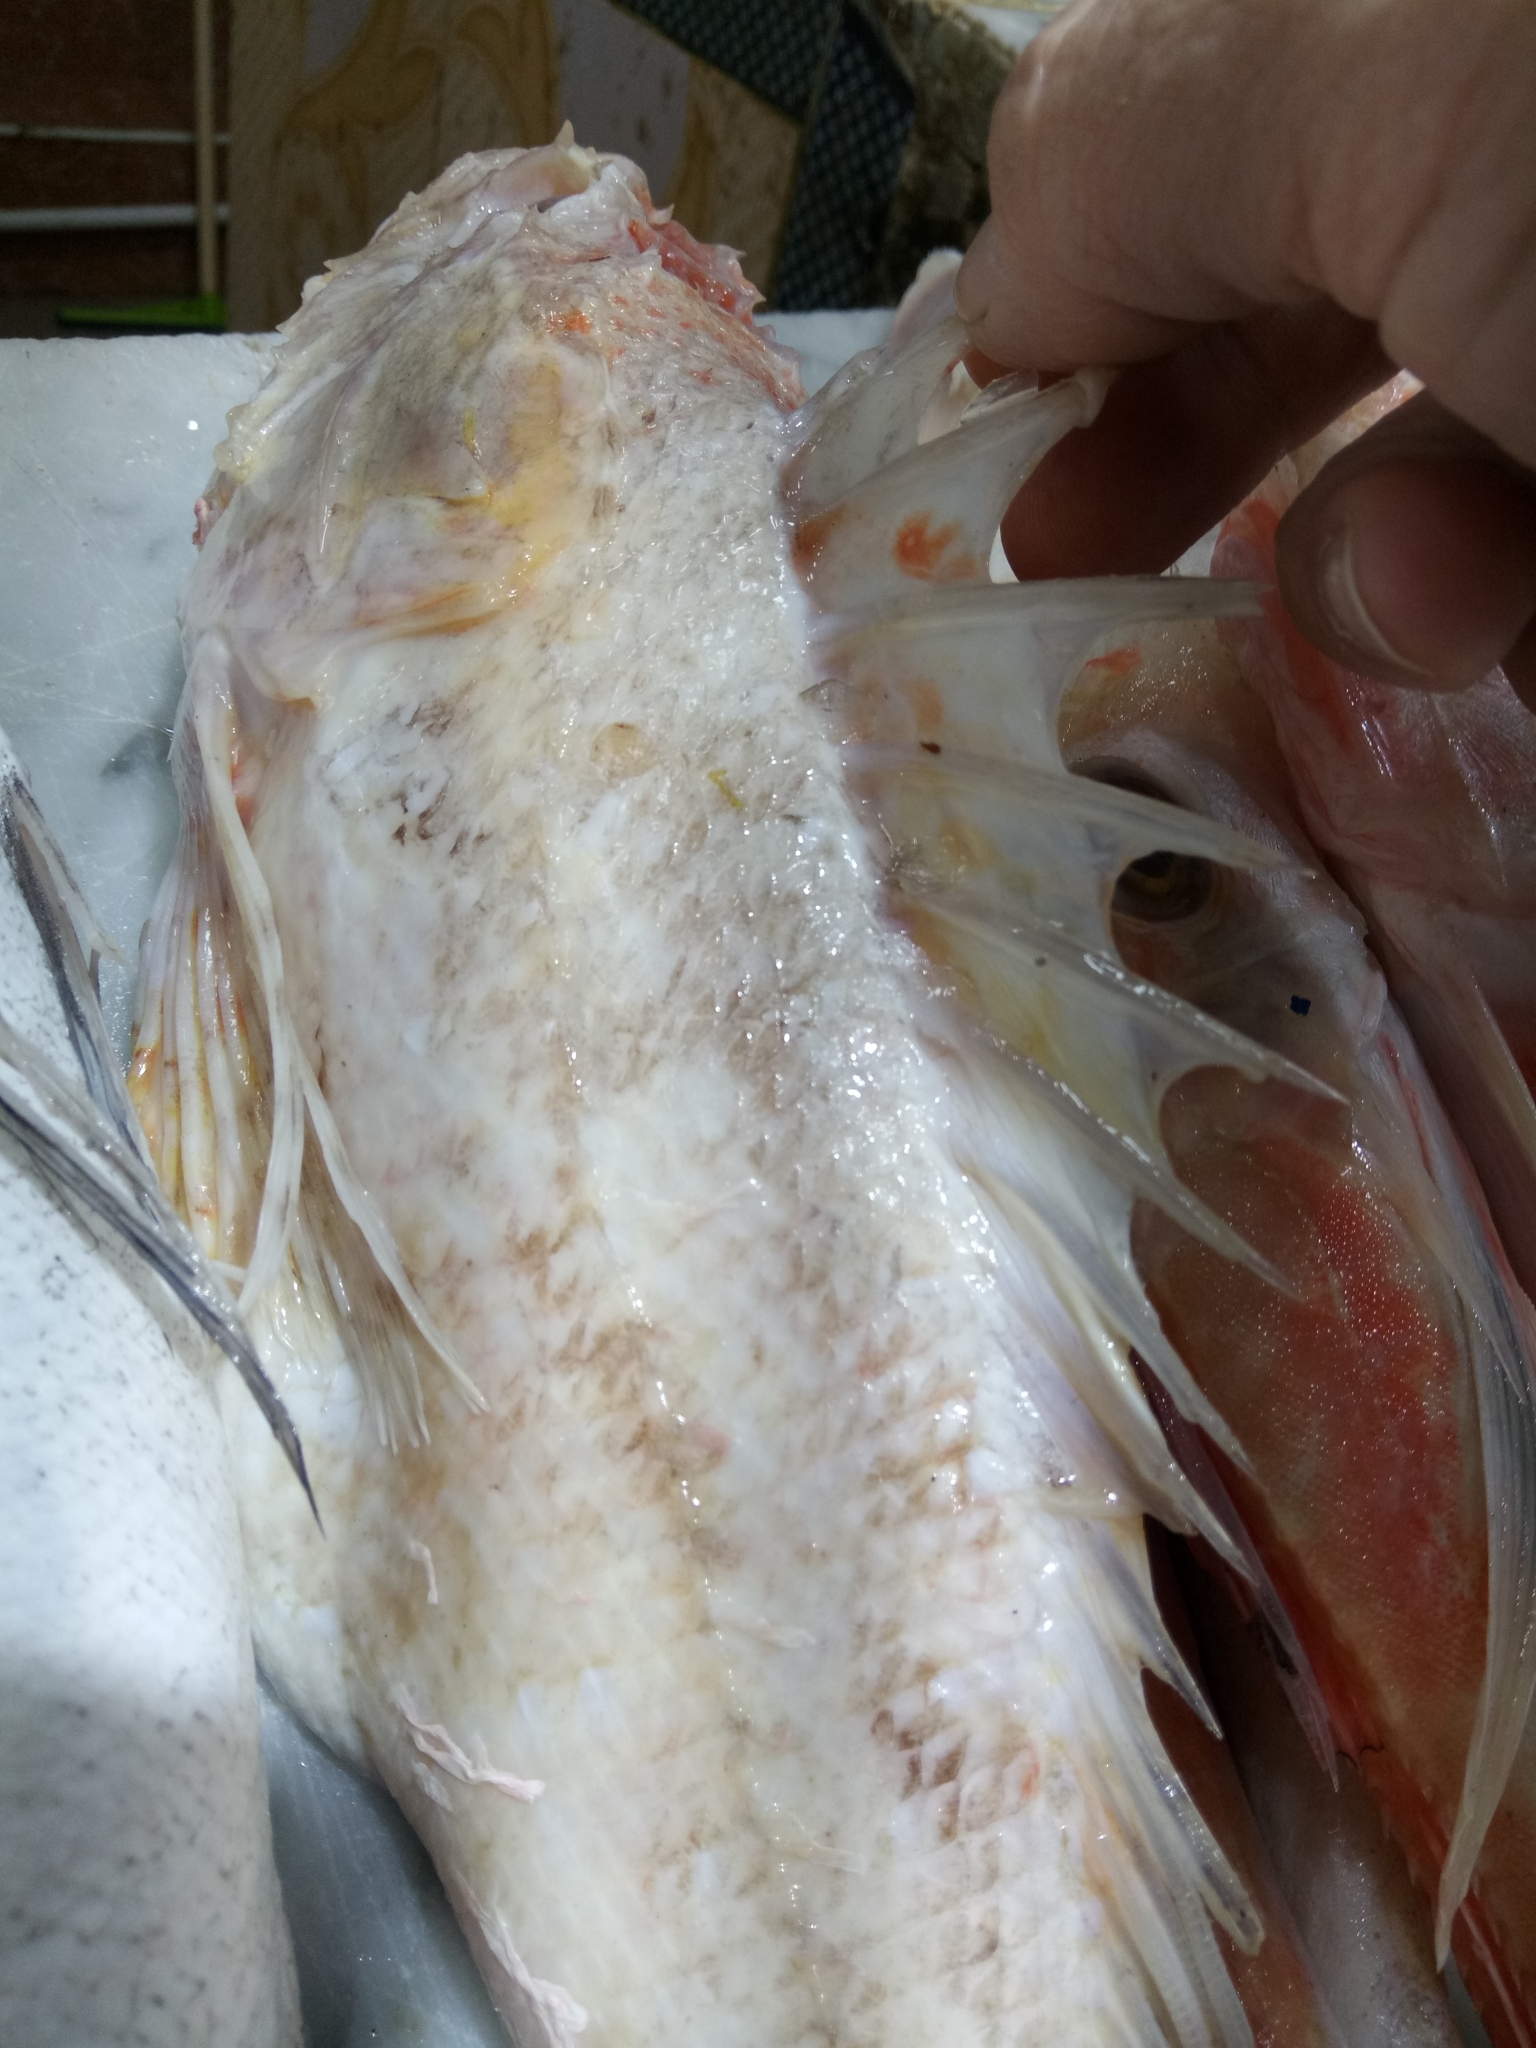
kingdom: Animalia
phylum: Chordata
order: Scorpaeniformes
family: Scorpaenidae
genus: Scorpaena
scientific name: Scorpaena elongata
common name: Slender rockfish
